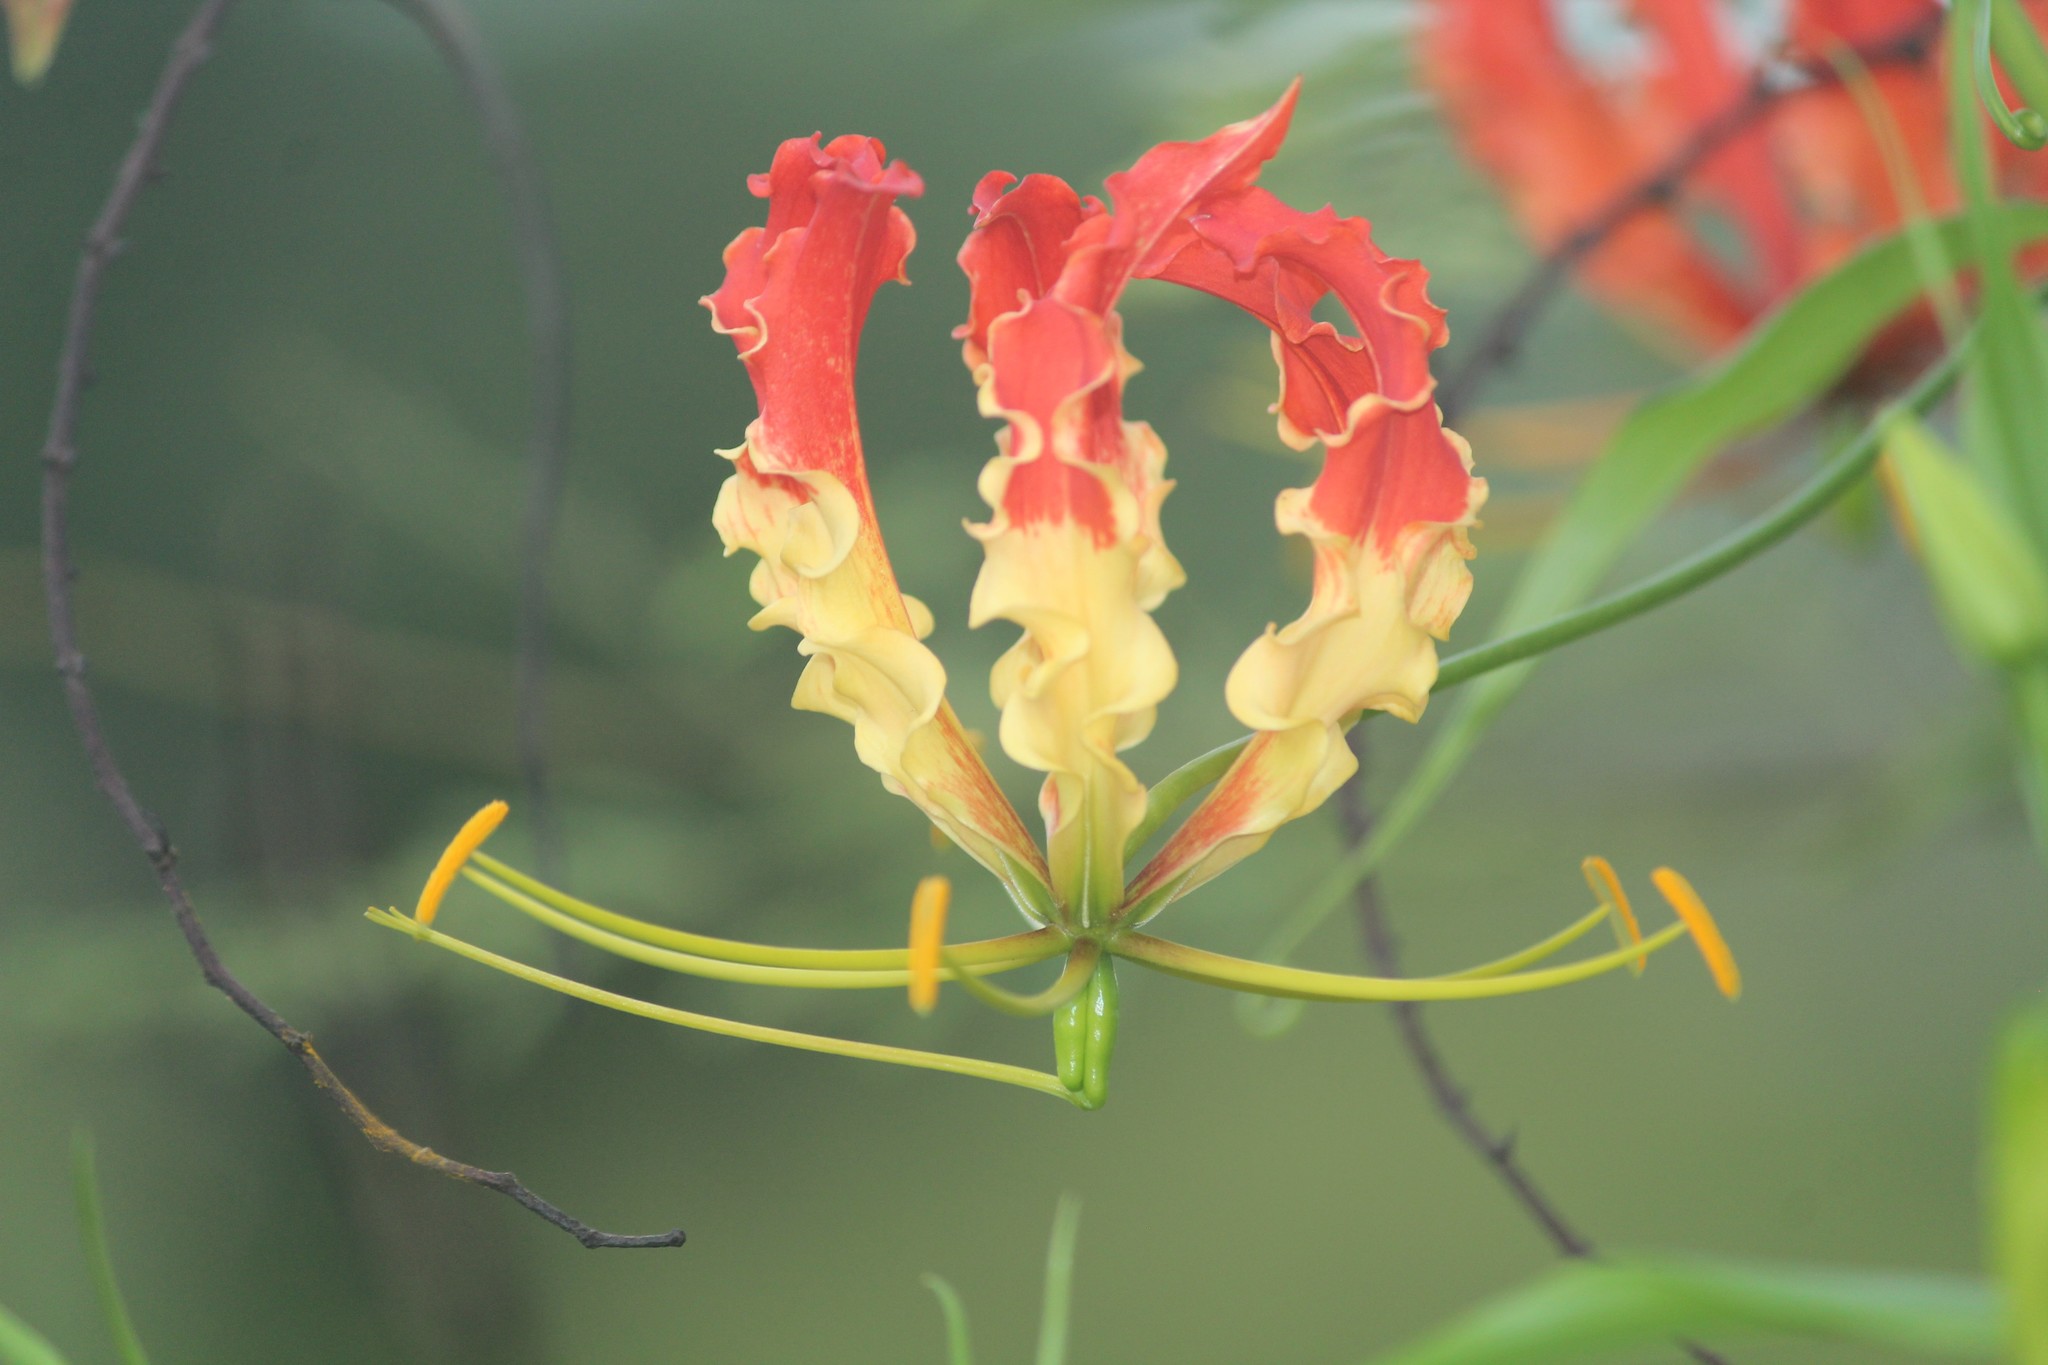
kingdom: Plantae
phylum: Tracheophyta
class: Liliopsida
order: Liliales
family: Colchicaceae
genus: Gloriosa
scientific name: Gloriosa superba
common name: Flame lily
